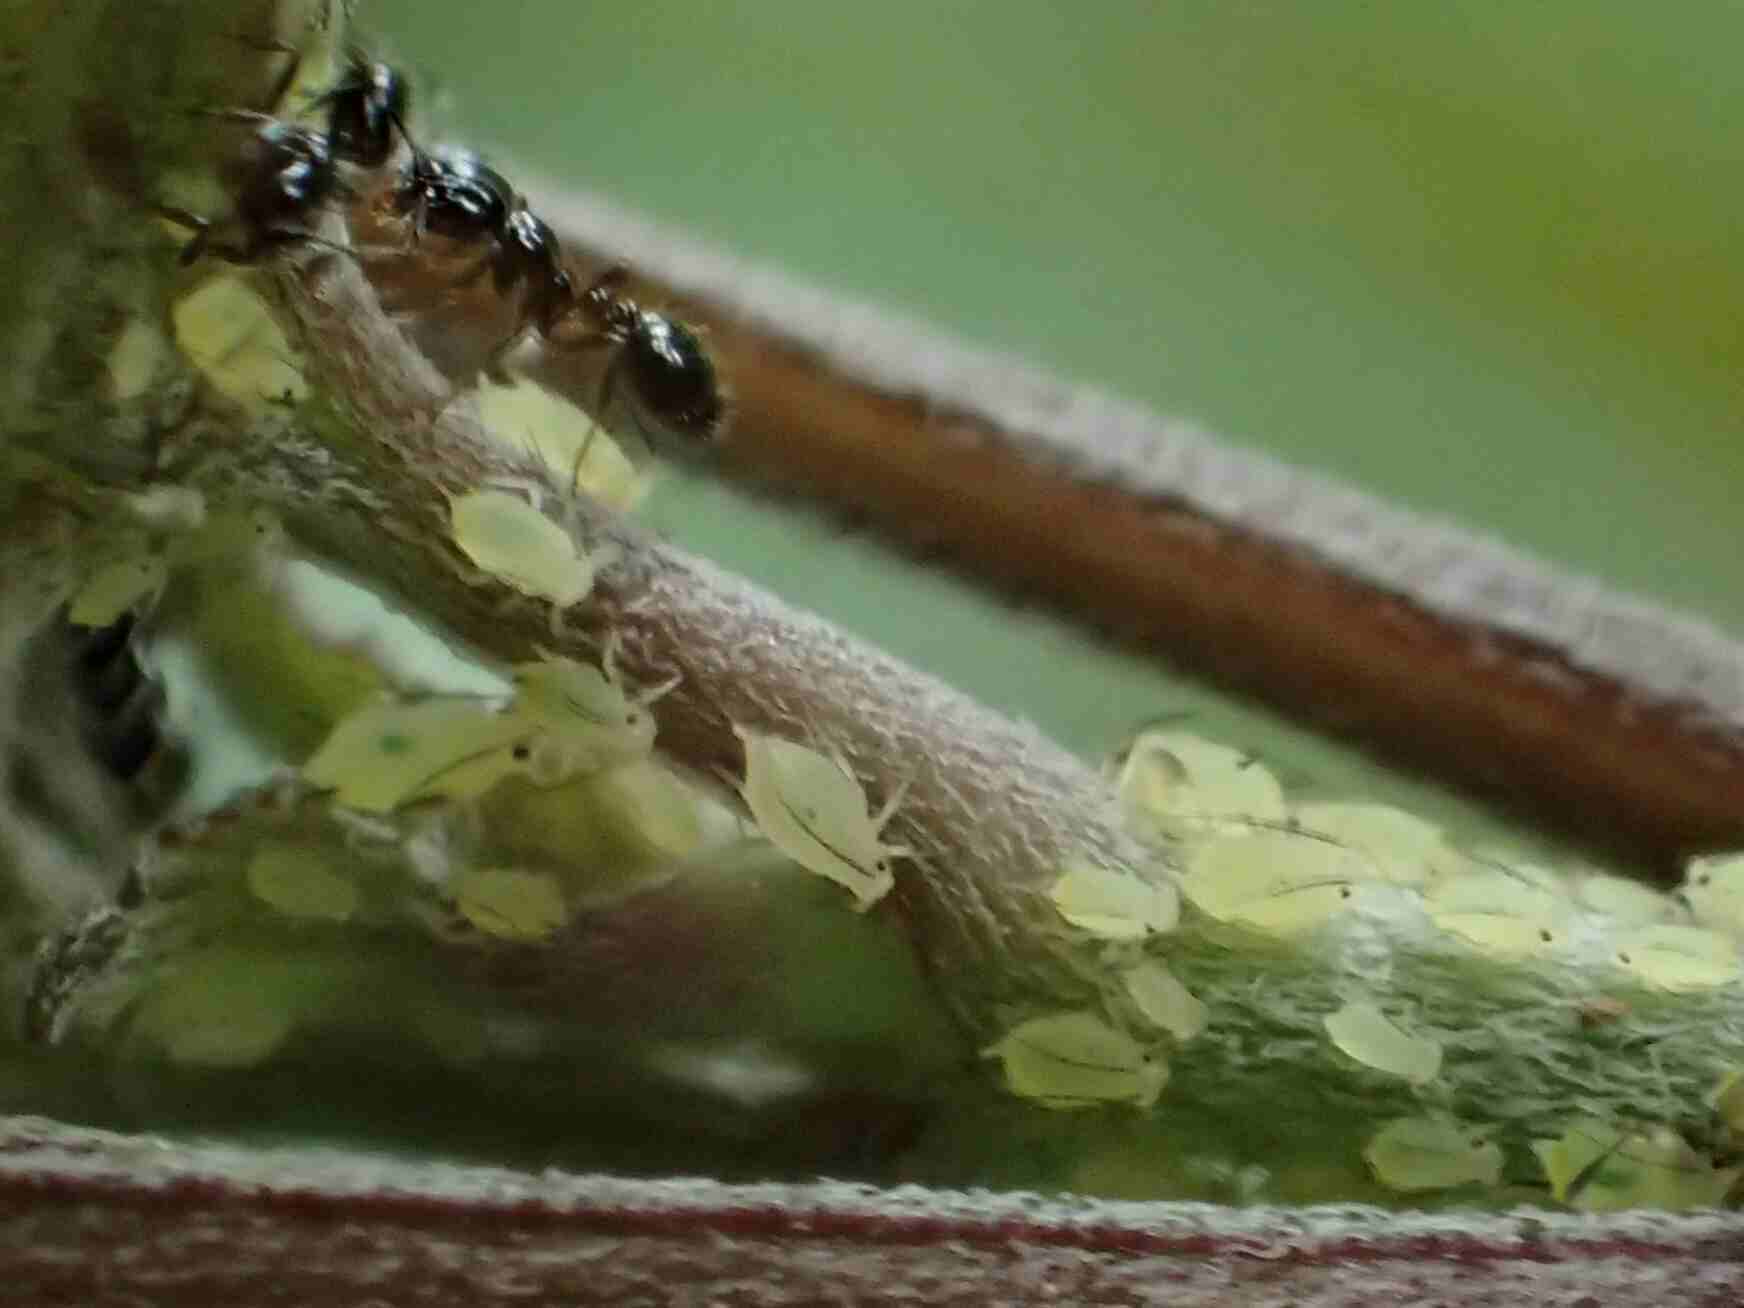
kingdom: Animalia
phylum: Arthropoda
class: Insecta
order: Hemiptera
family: Aphididae
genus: Aphis
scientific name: Aphis coreopsidis
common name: Aphid
